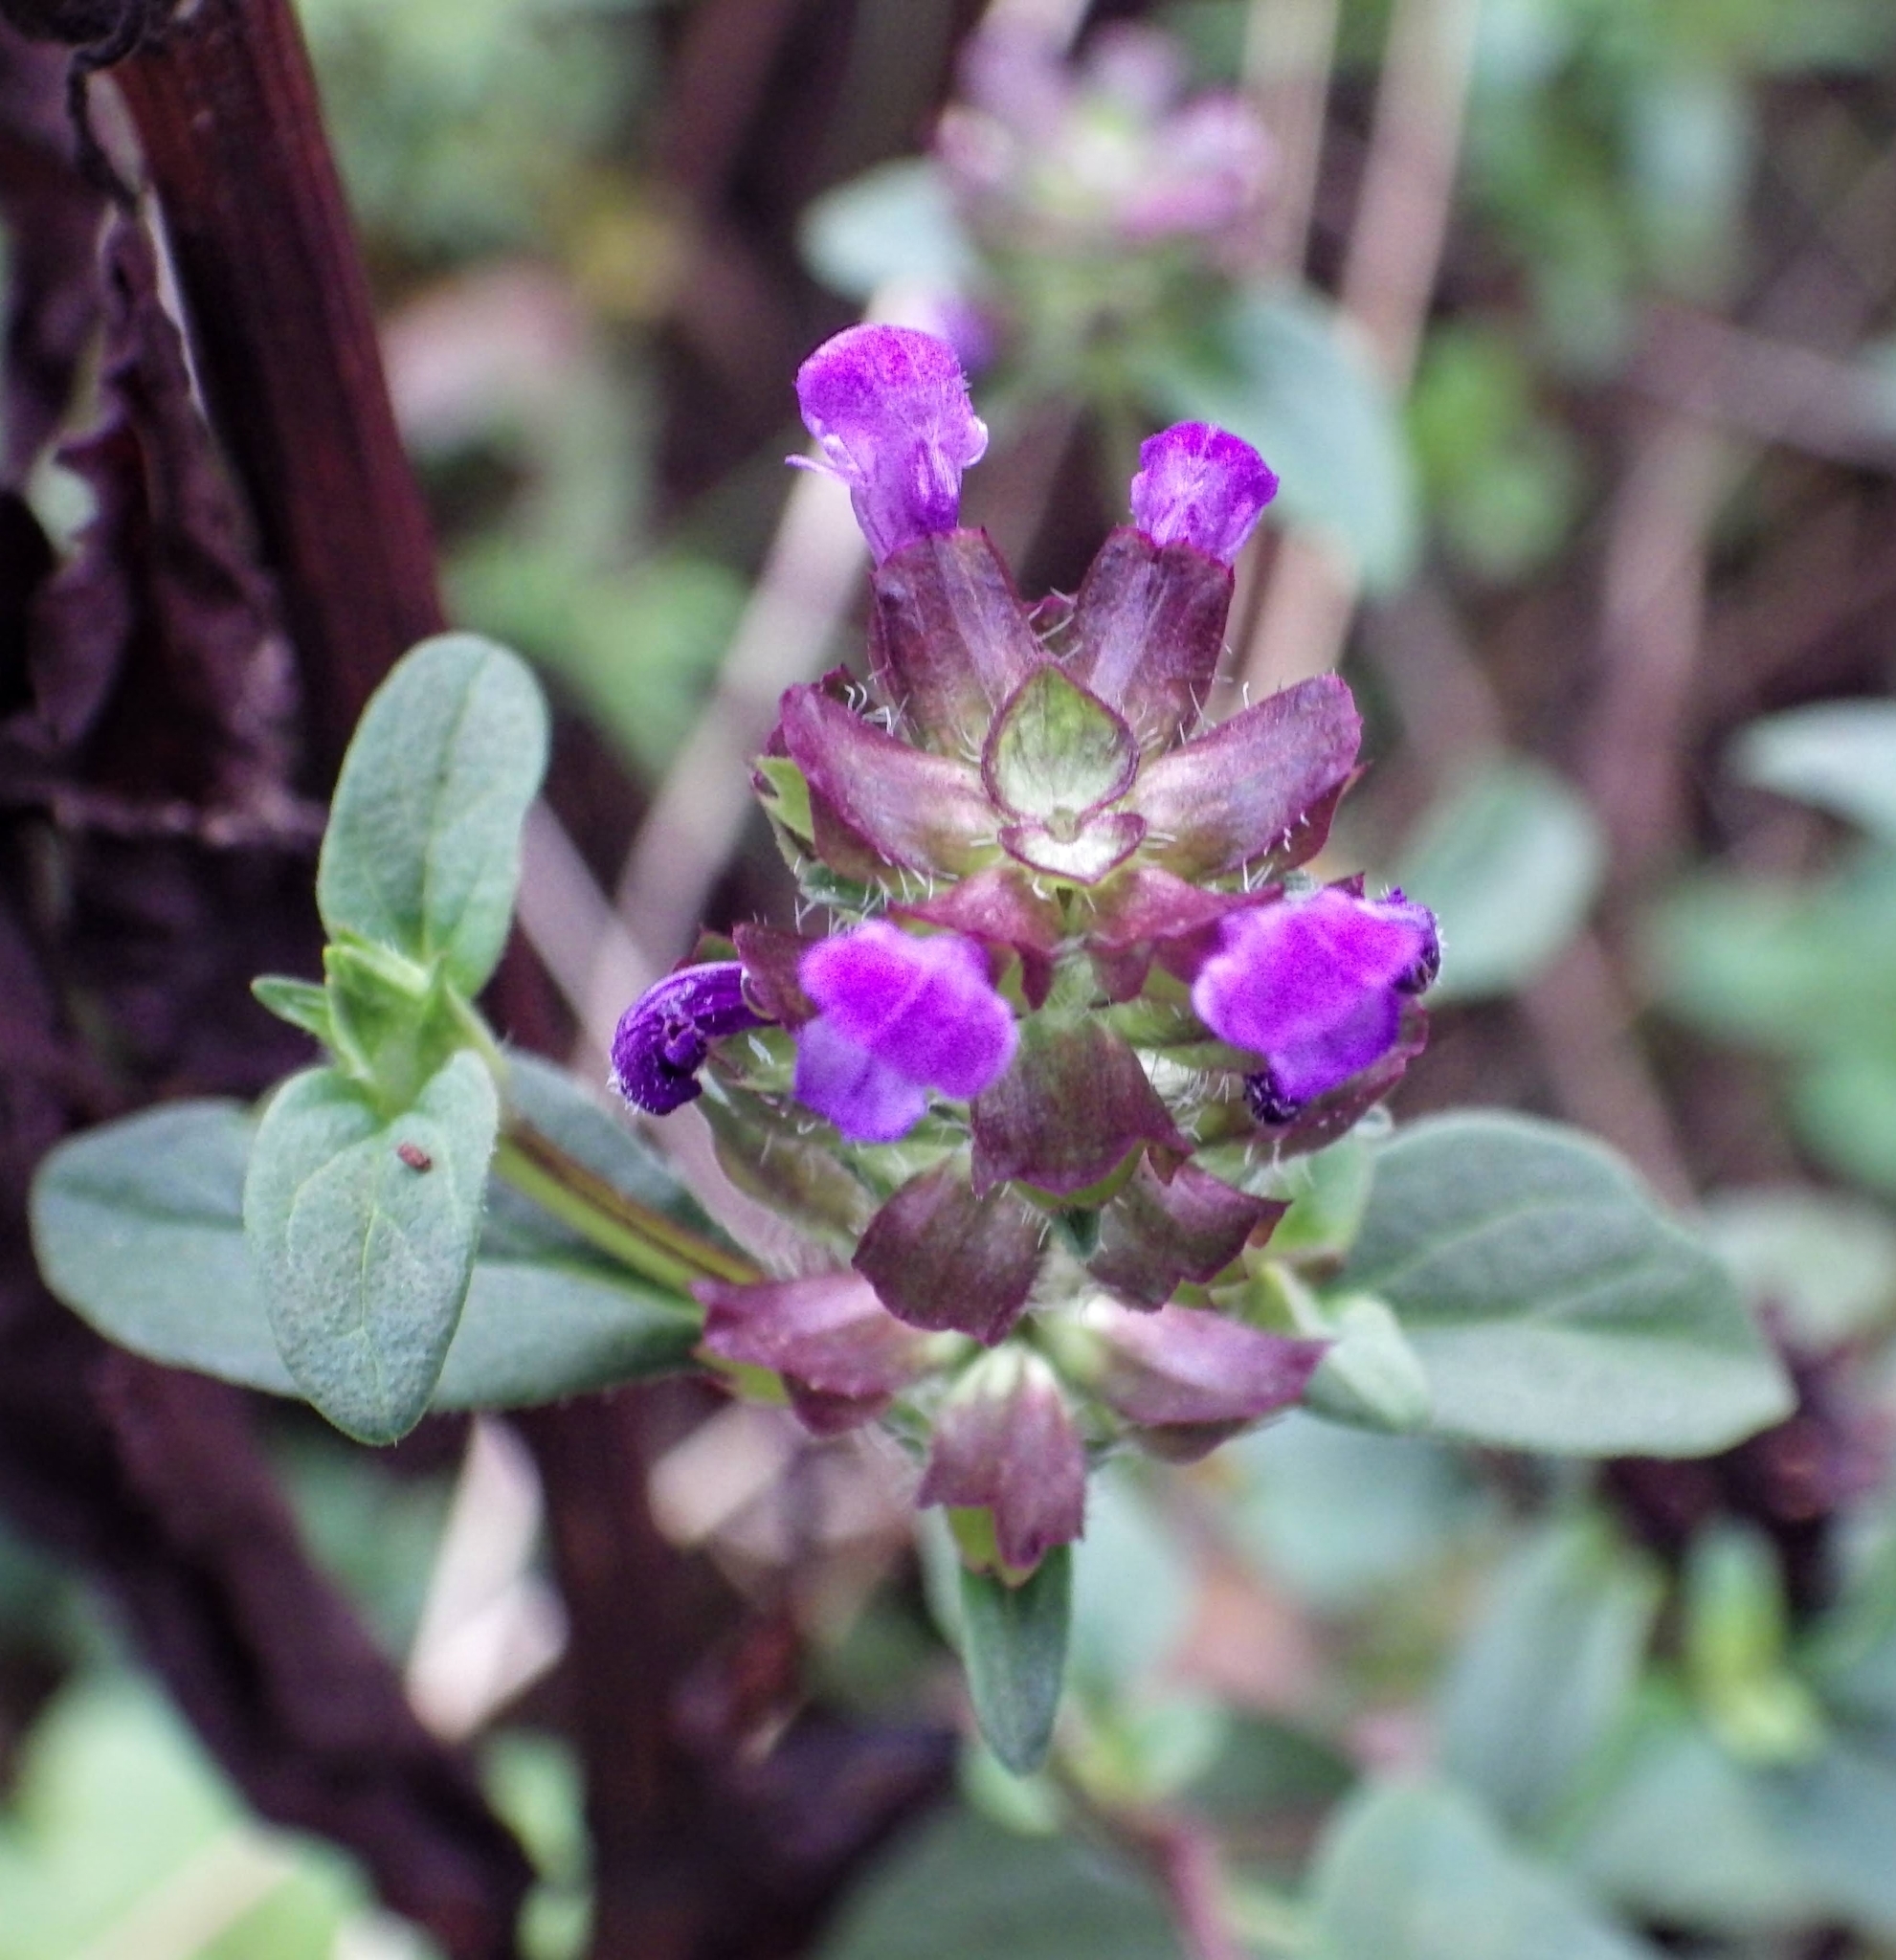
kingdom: Plantae
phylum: Tracheophyta
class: Magnoliopsida
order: Lamiales
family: Lamiaceae
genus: Prunella
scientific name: Prunella vulgaris
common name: Heal-all
